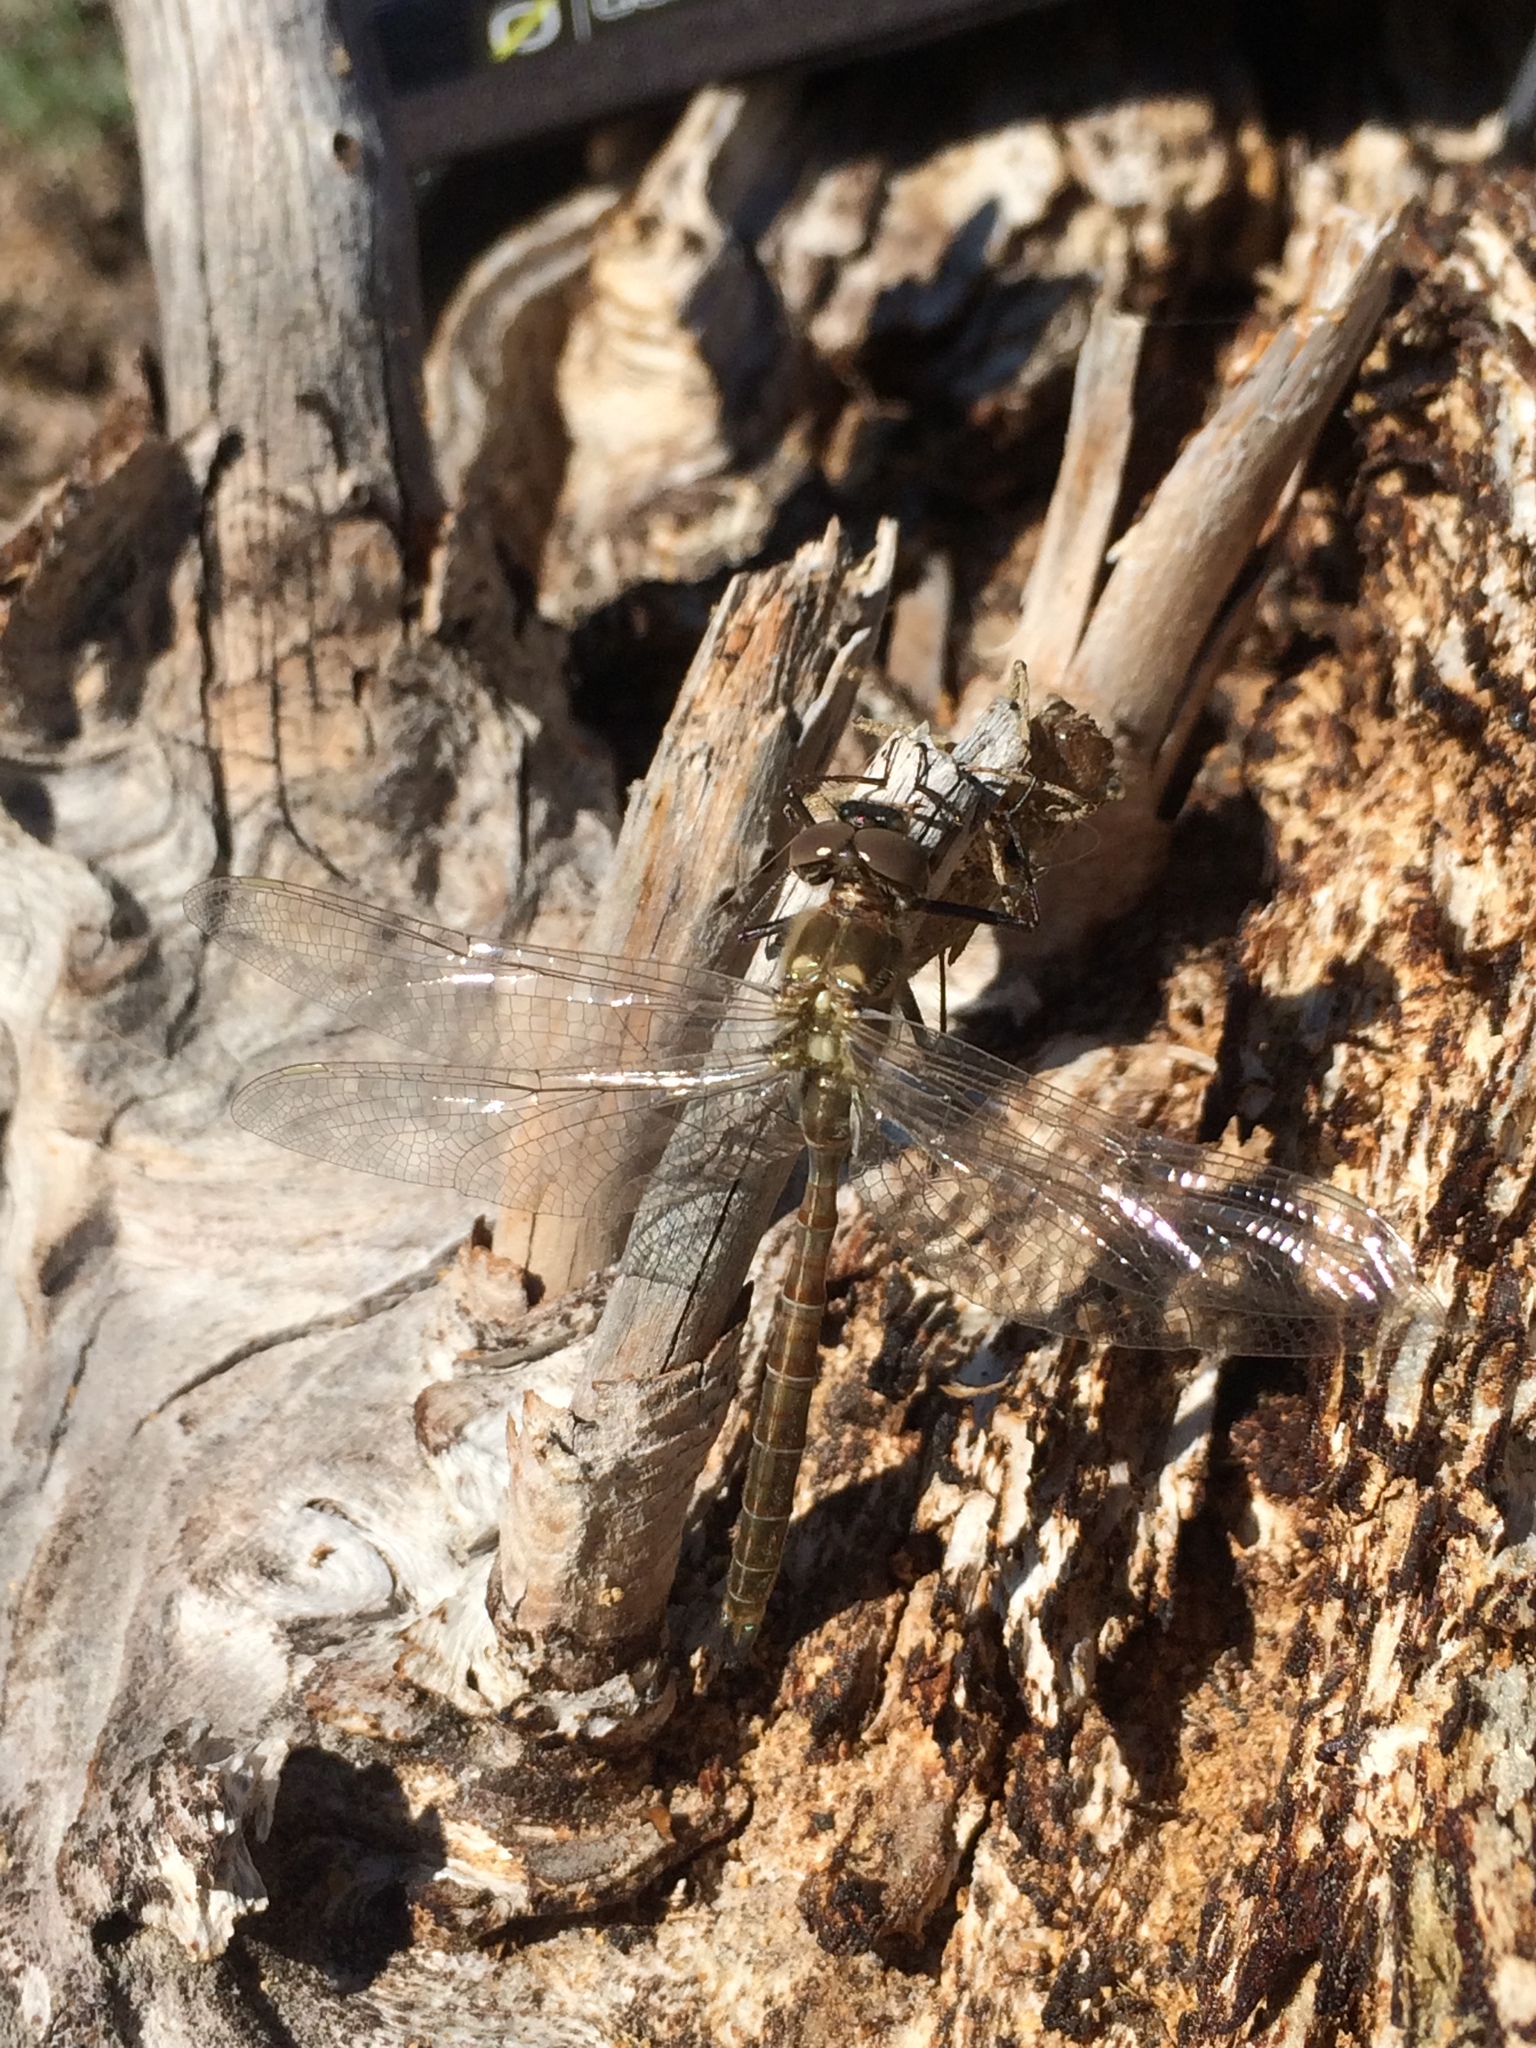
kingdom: Animalia
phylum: Arthropoda
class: Insecta
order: Odonata
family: Corduliidae
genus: Somatochlora
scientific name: Somatochlora albicincta
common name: Ringed emerald
